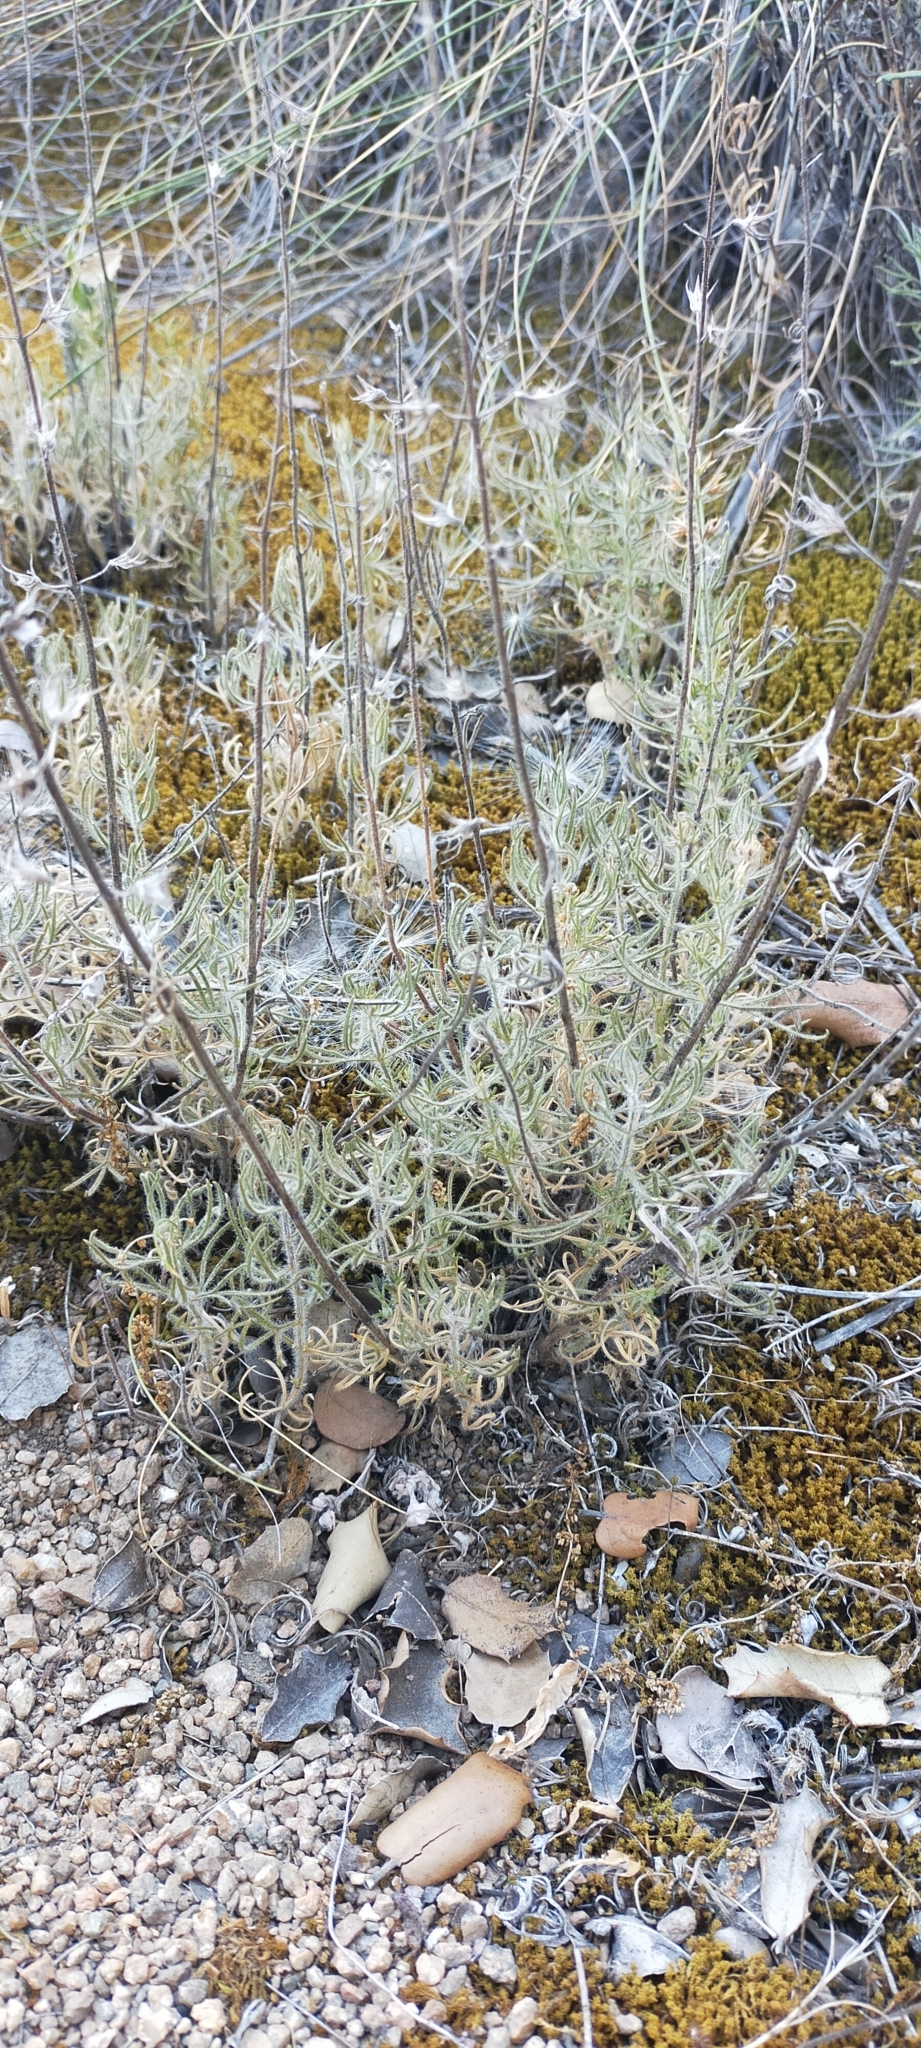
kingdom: Plantae
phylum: Tracheophyta
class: Magnoliopsida
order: Lamiales
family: Lamiaceae
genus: Teucrium
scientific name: Teucrium pseudochamaepitys
